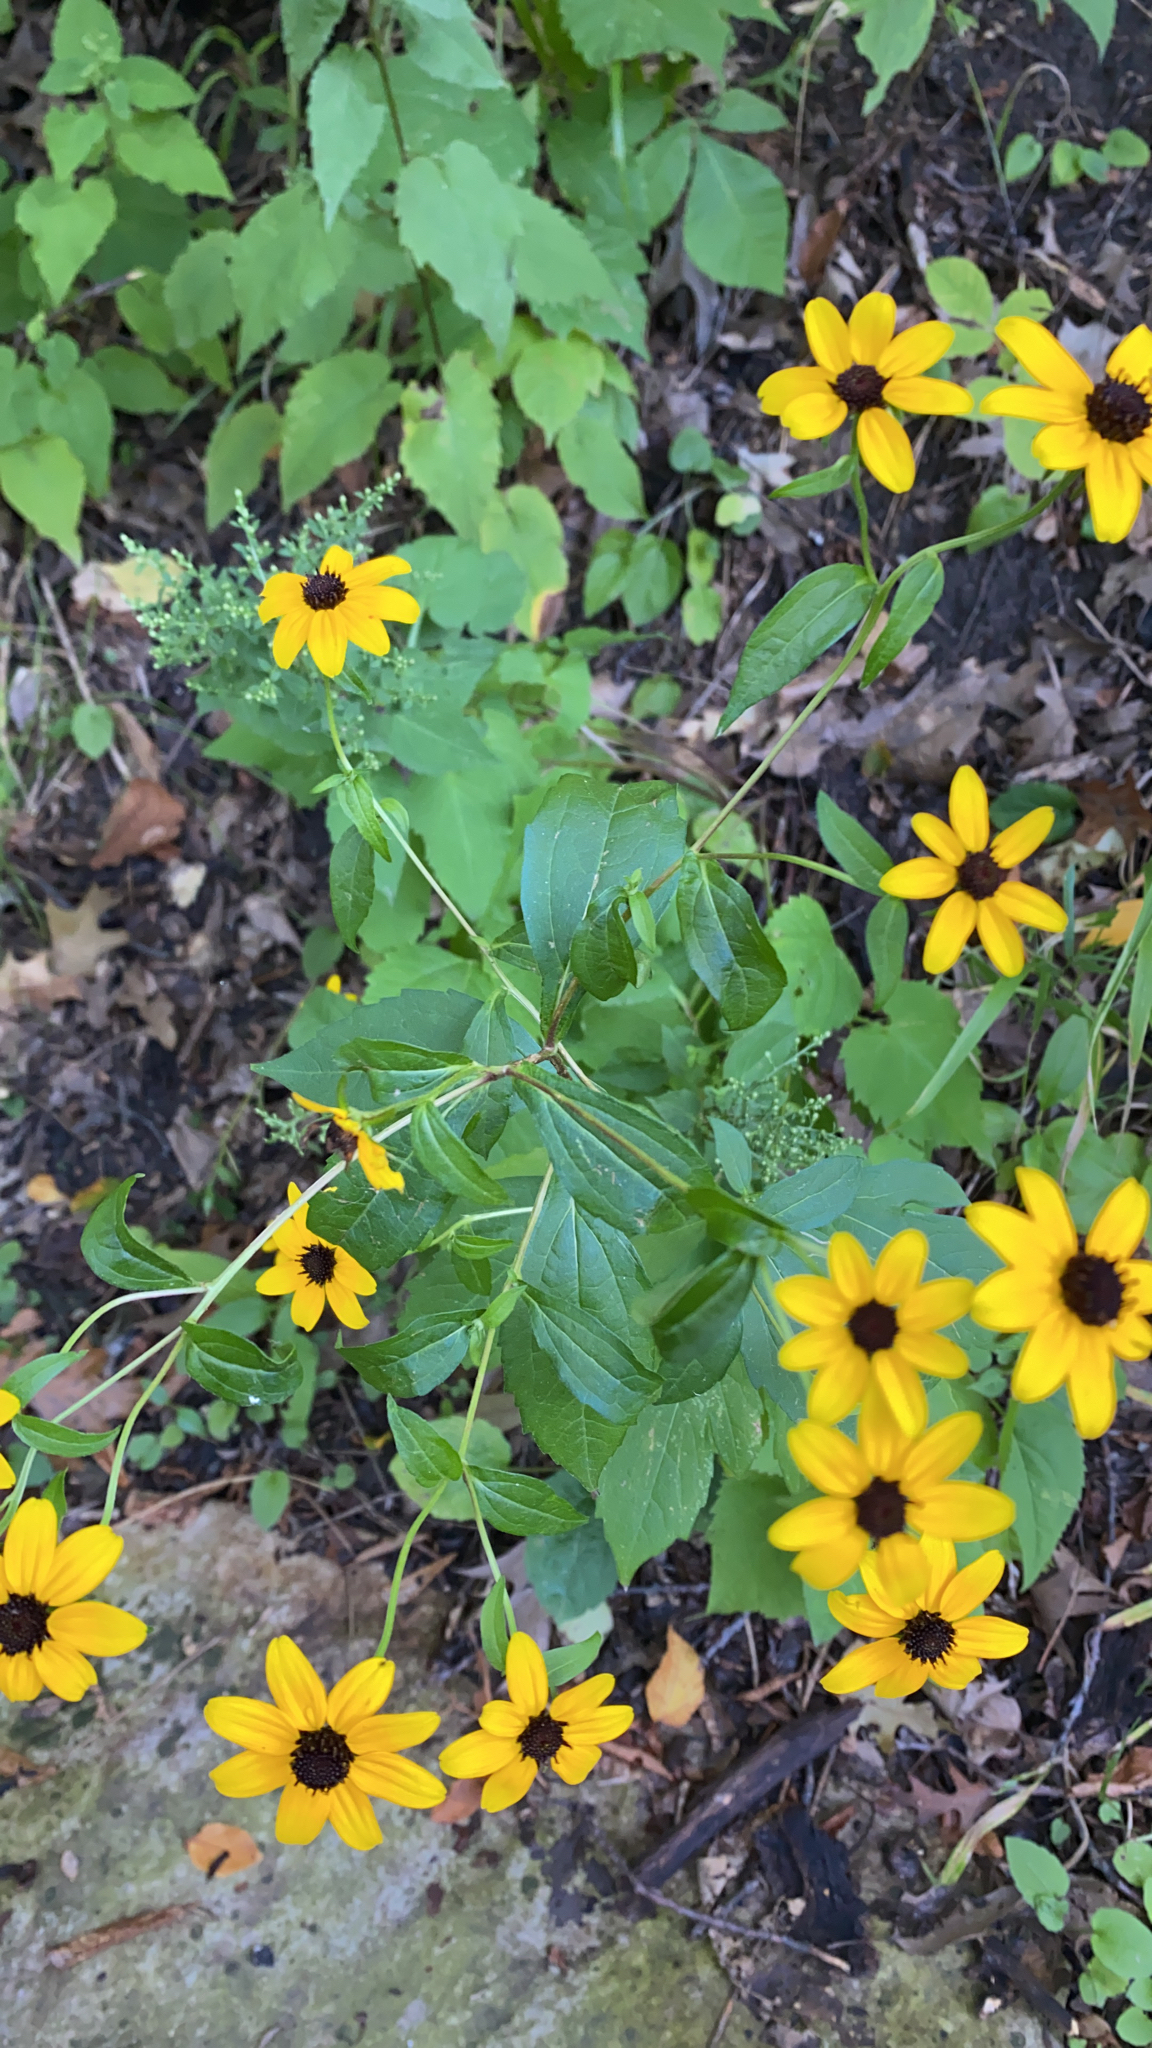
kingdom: Plantae
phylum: Tracheophyta
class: Magnoliopsida
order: Asterales
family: Asteraceae
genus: Rudbeckia
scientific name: Rudbeckia triloba
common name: Thin-leaved coneflower
